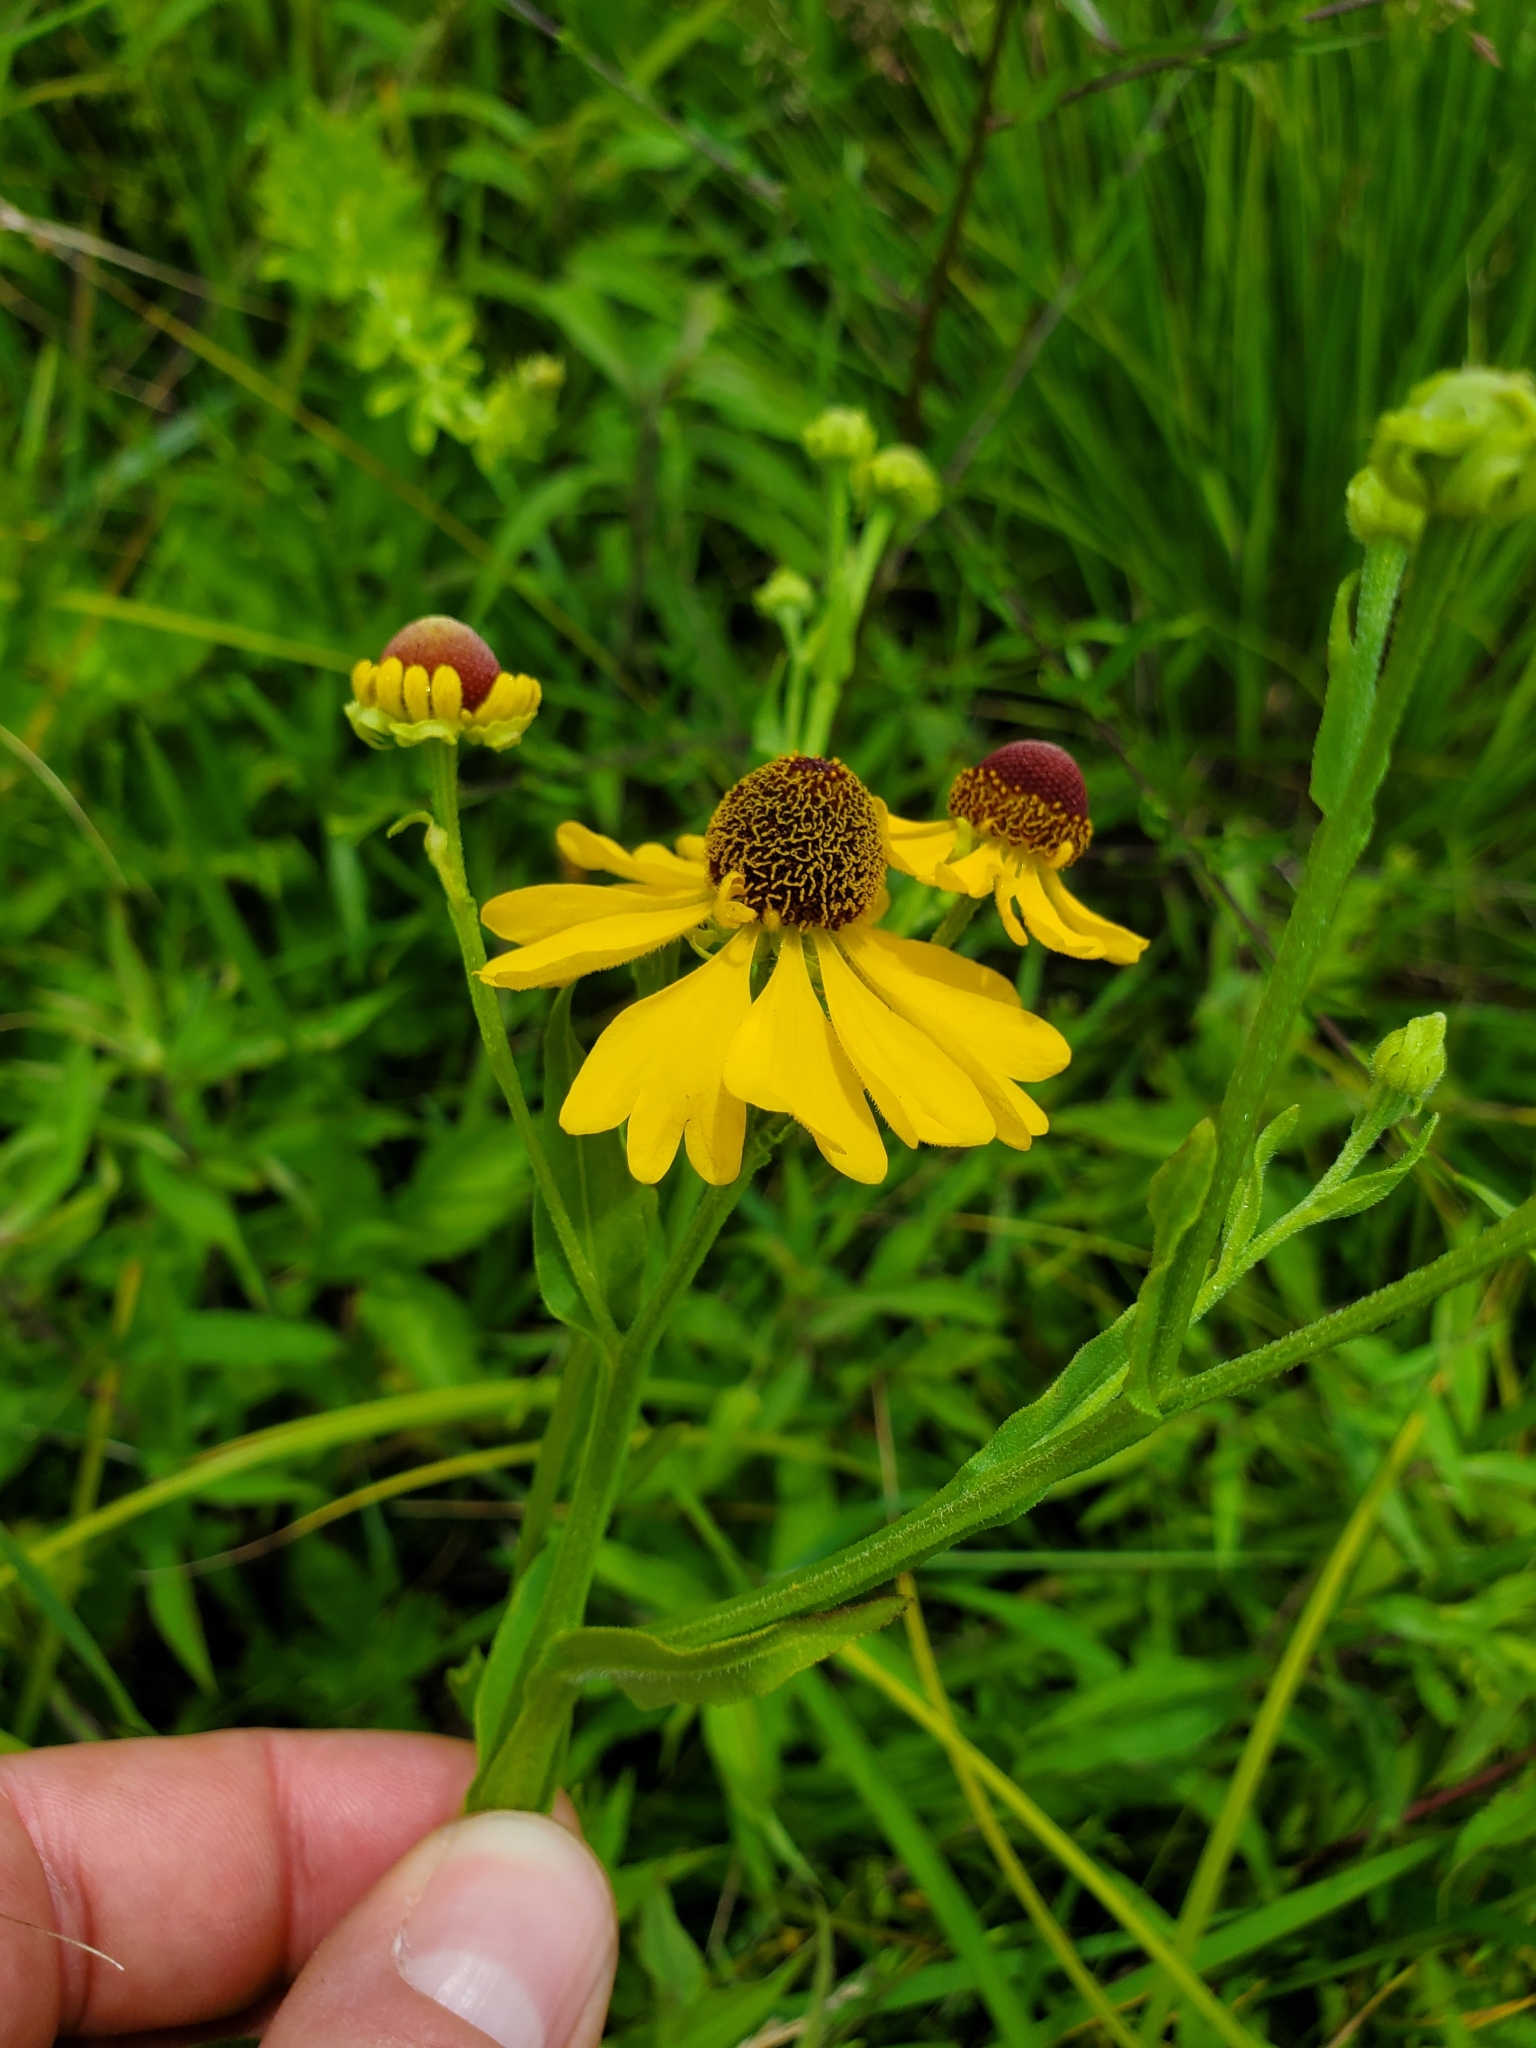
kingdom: Plantae
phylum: Tracheophyta
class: Magnoliopsida
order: Asterales
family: Asteraceae
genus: Helenium
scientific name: Helenium flexuosum
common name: Naked-flowered sneezeweed
